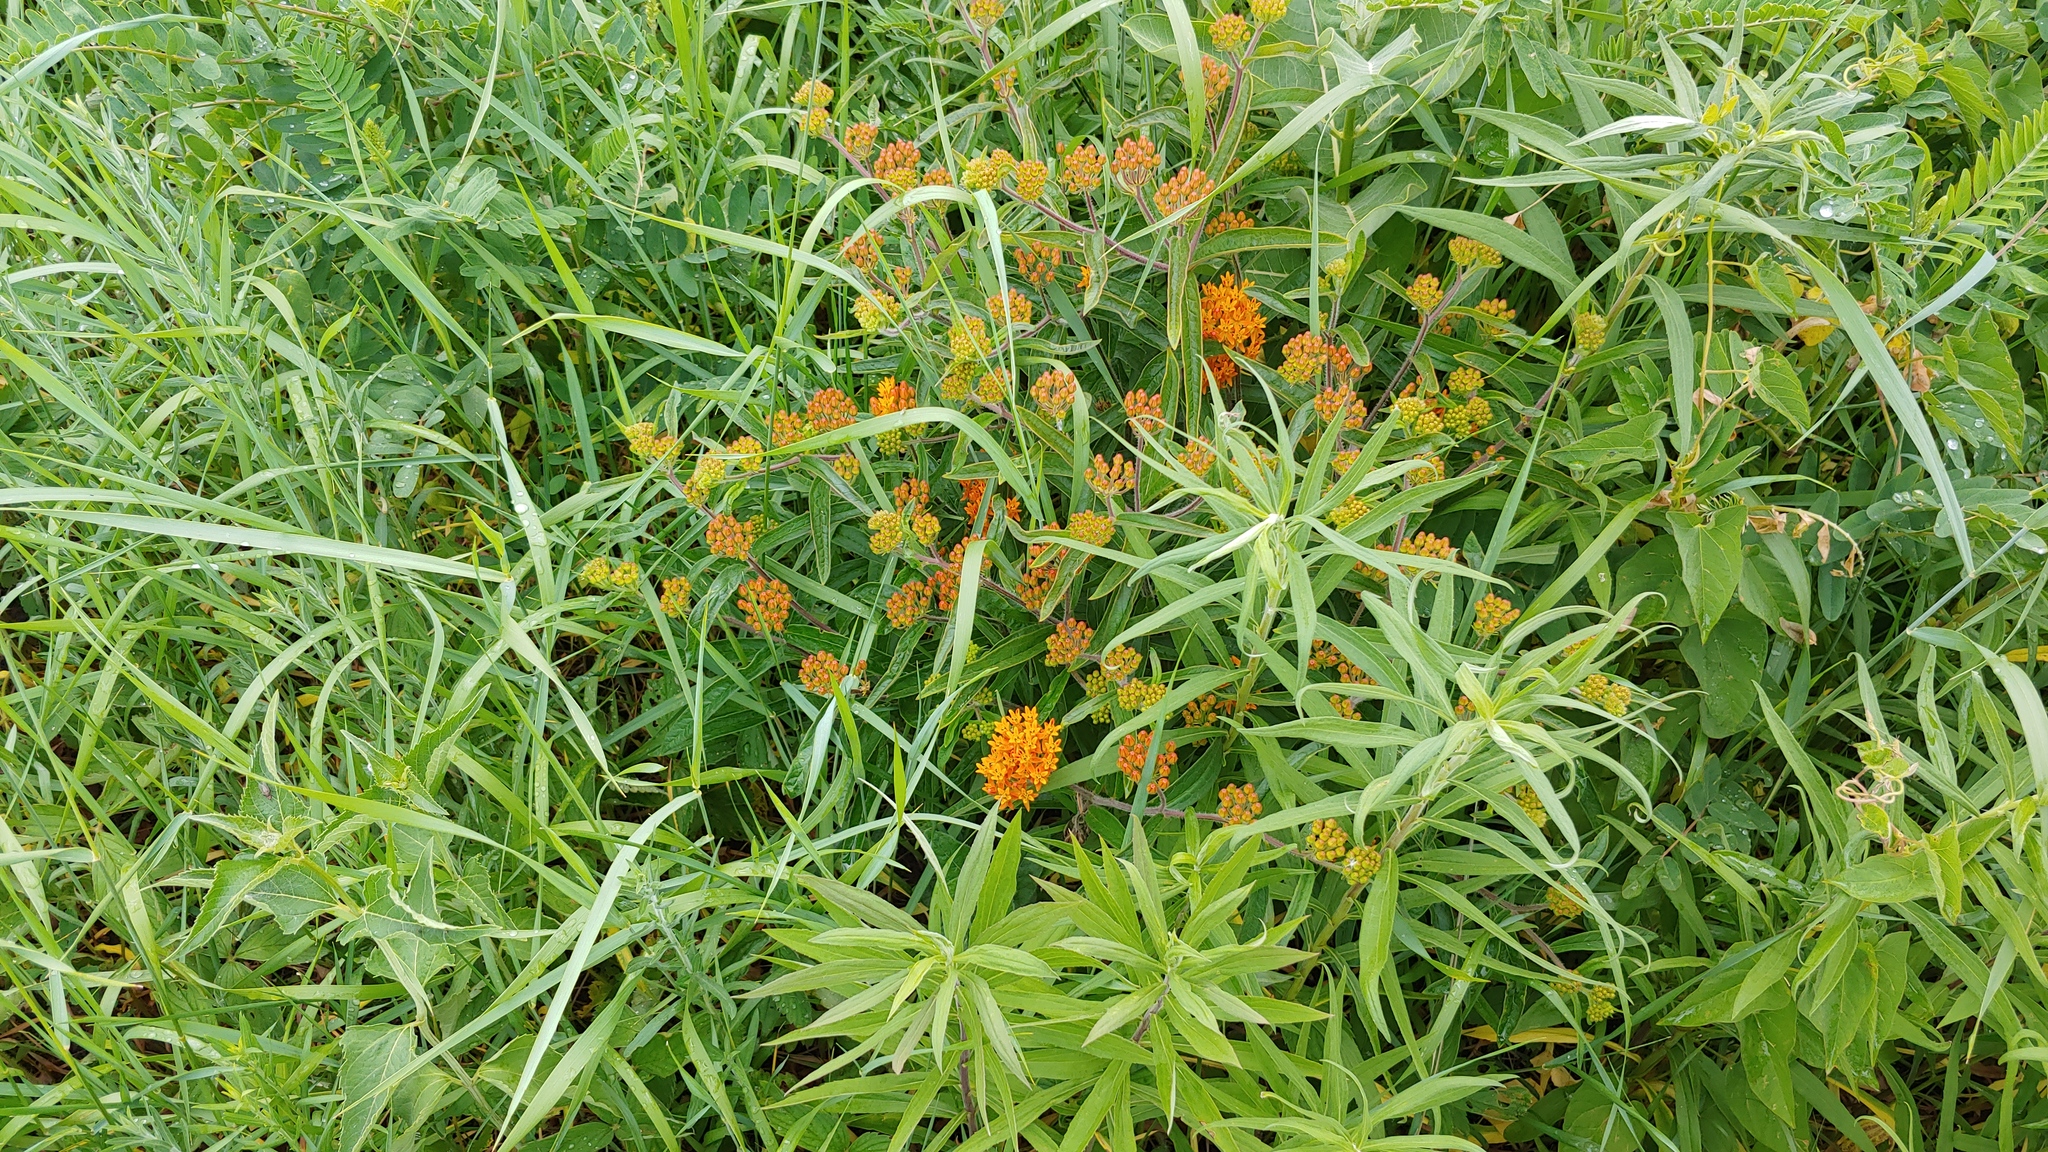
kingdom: Plantae
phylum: Tracheophyta
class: Magnoliopsida
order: Gentianales
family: Apocynaceae
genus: Asclepias
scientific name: Asclepias tuberosa
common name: Butterfly milkweed
